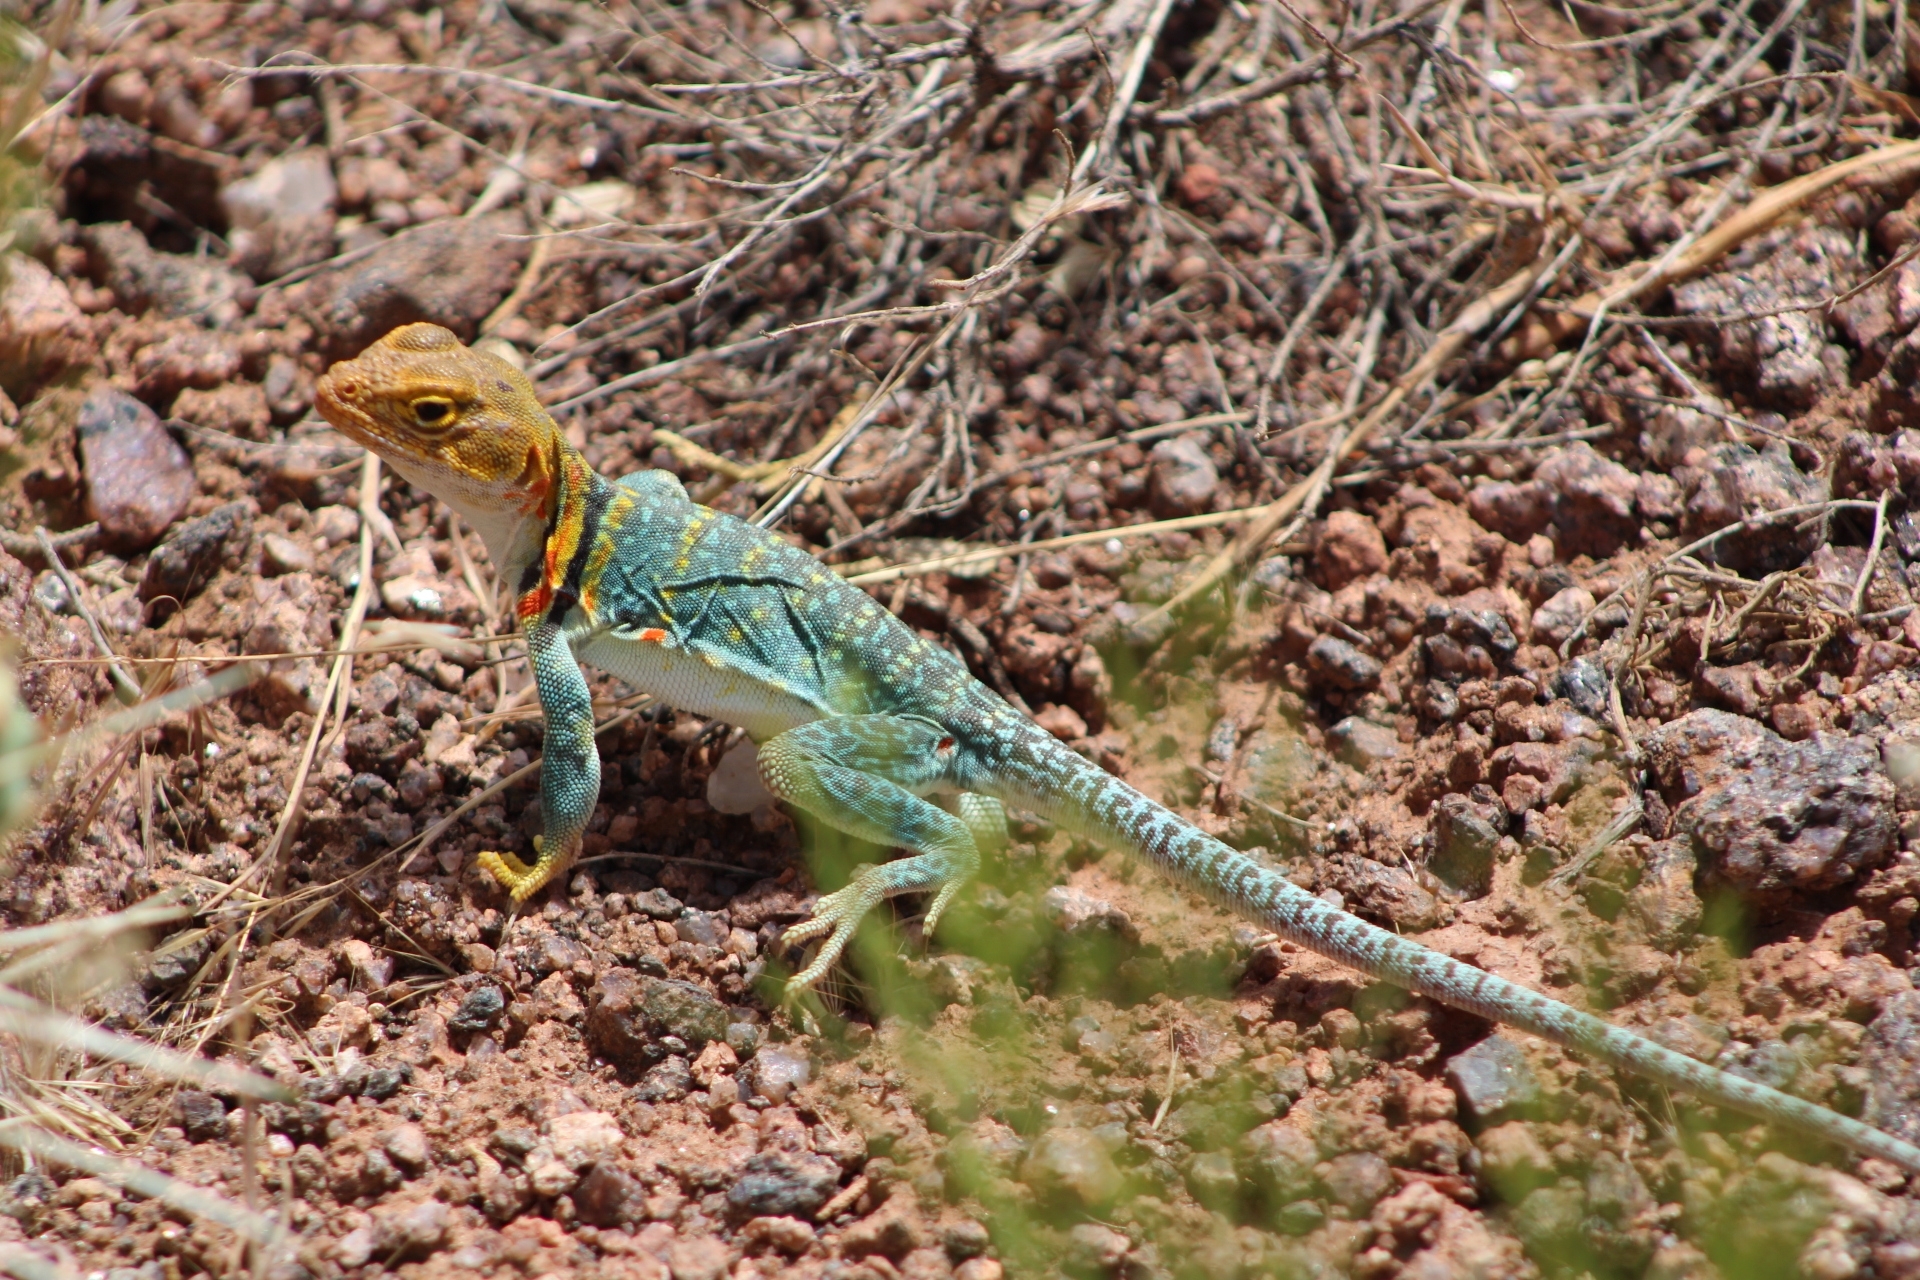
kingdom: Animalia
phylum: Chordata
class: Squamata
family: Crotaphytidae
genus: Crotaphytus
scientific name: Crotaphytus collaris
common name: Collared lizard
